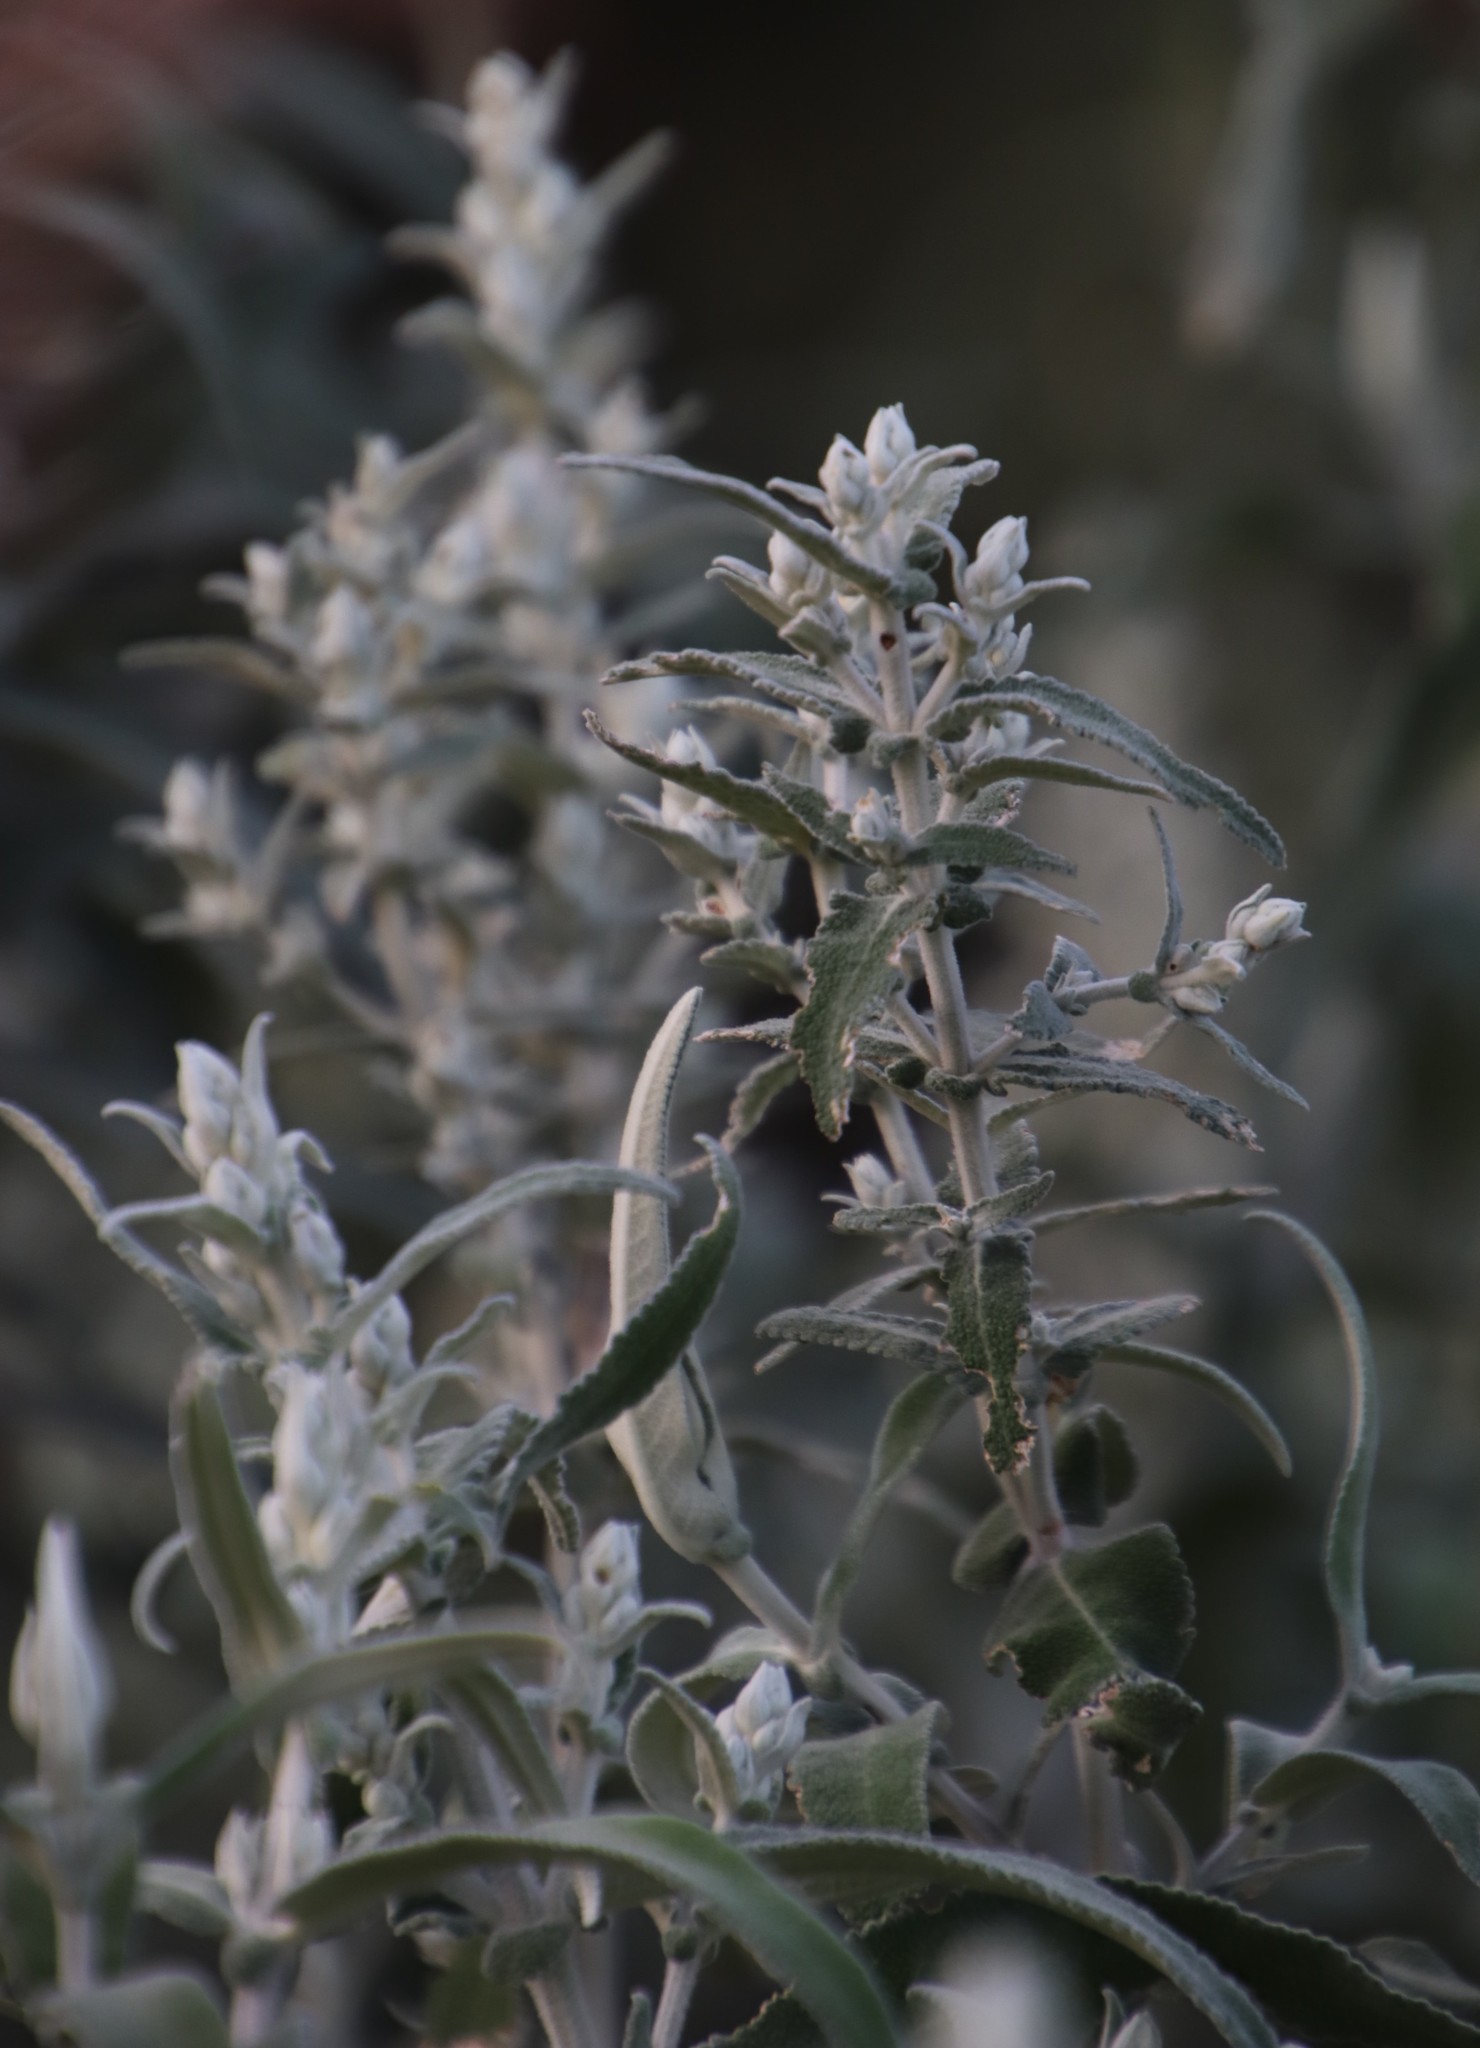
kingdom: Plantae
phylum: Tracheophyta
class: Magnoliopsida
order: Lamiales
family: Scrophulariaceae
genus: Buddleja
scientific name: Buddleja salviifolia
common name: Sagewood
